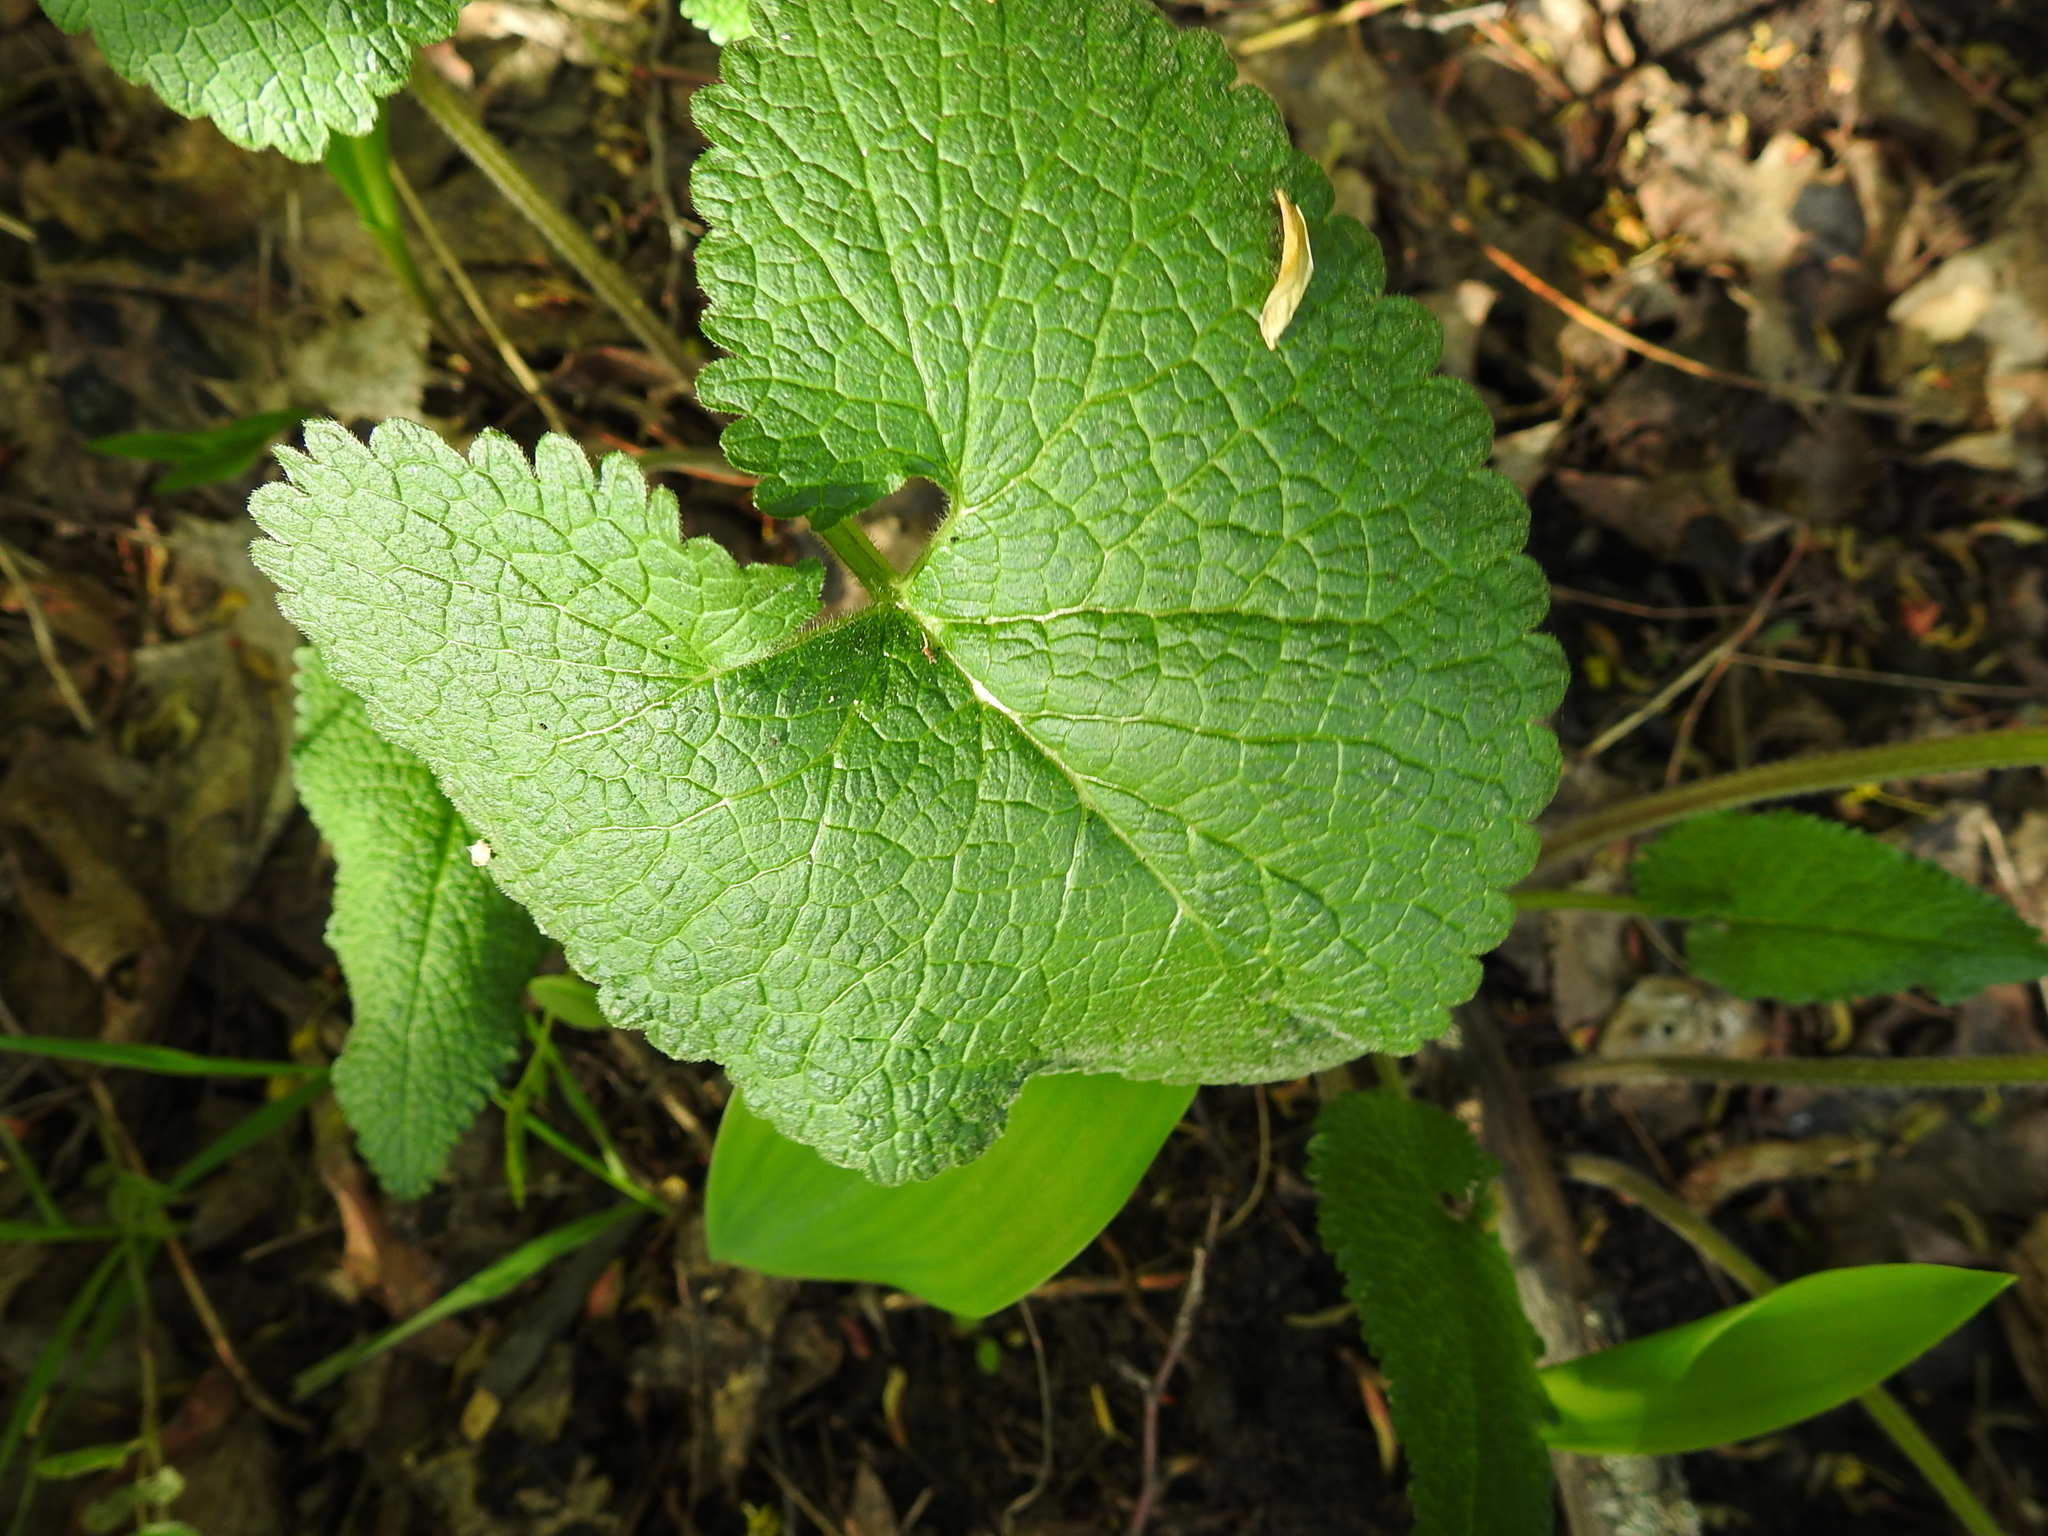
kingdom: Plantae
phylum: Tracheophyta
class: Magnoliopsida
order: Lamiales
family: Lamiaceae
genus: Phlomoides
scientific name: Phlomoides tuberosa
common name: Tuberous jerusalem sage
